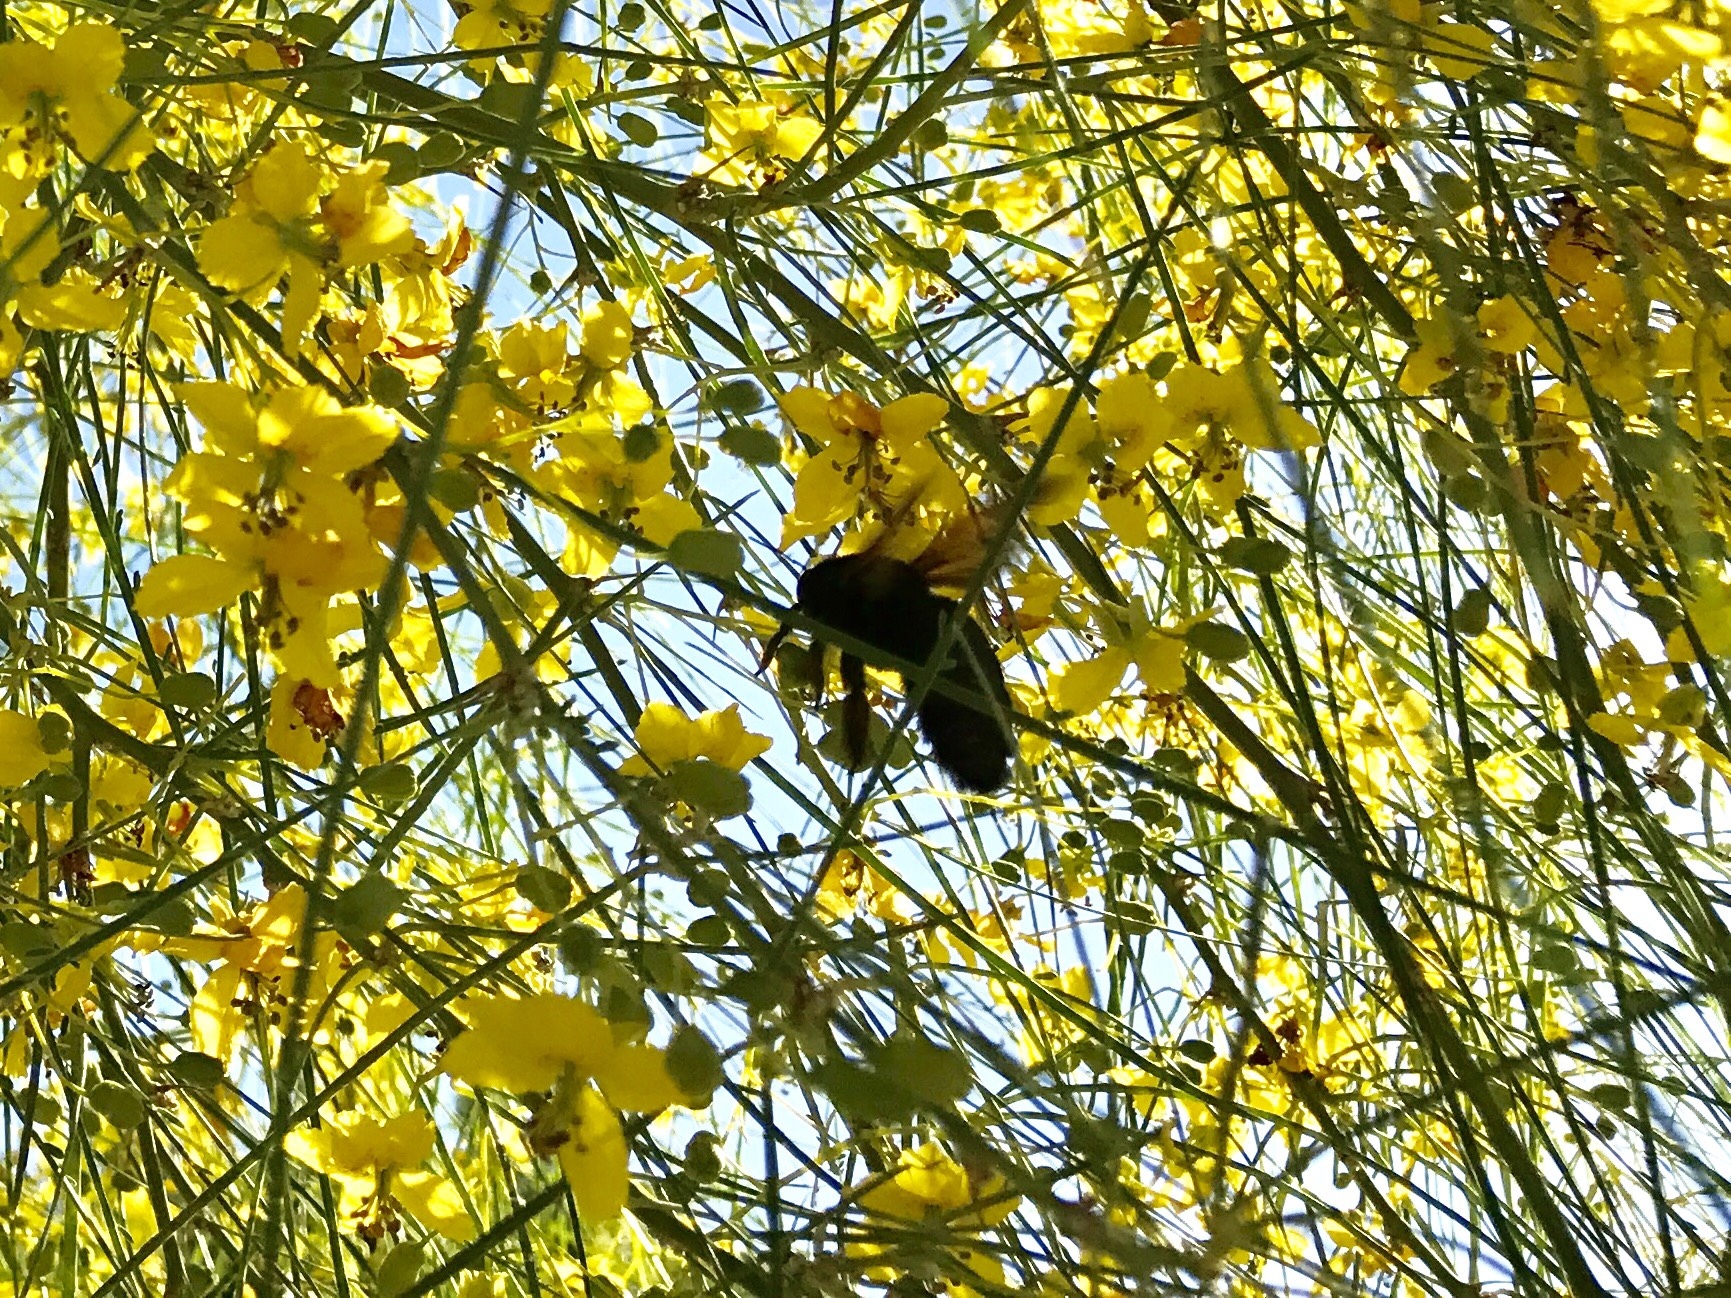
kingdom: Animalia
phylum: Arthropoda
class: Insecta
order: Hymenoptera
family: Apidae
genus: Xylocopa
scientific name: Xylocopa sonorina
